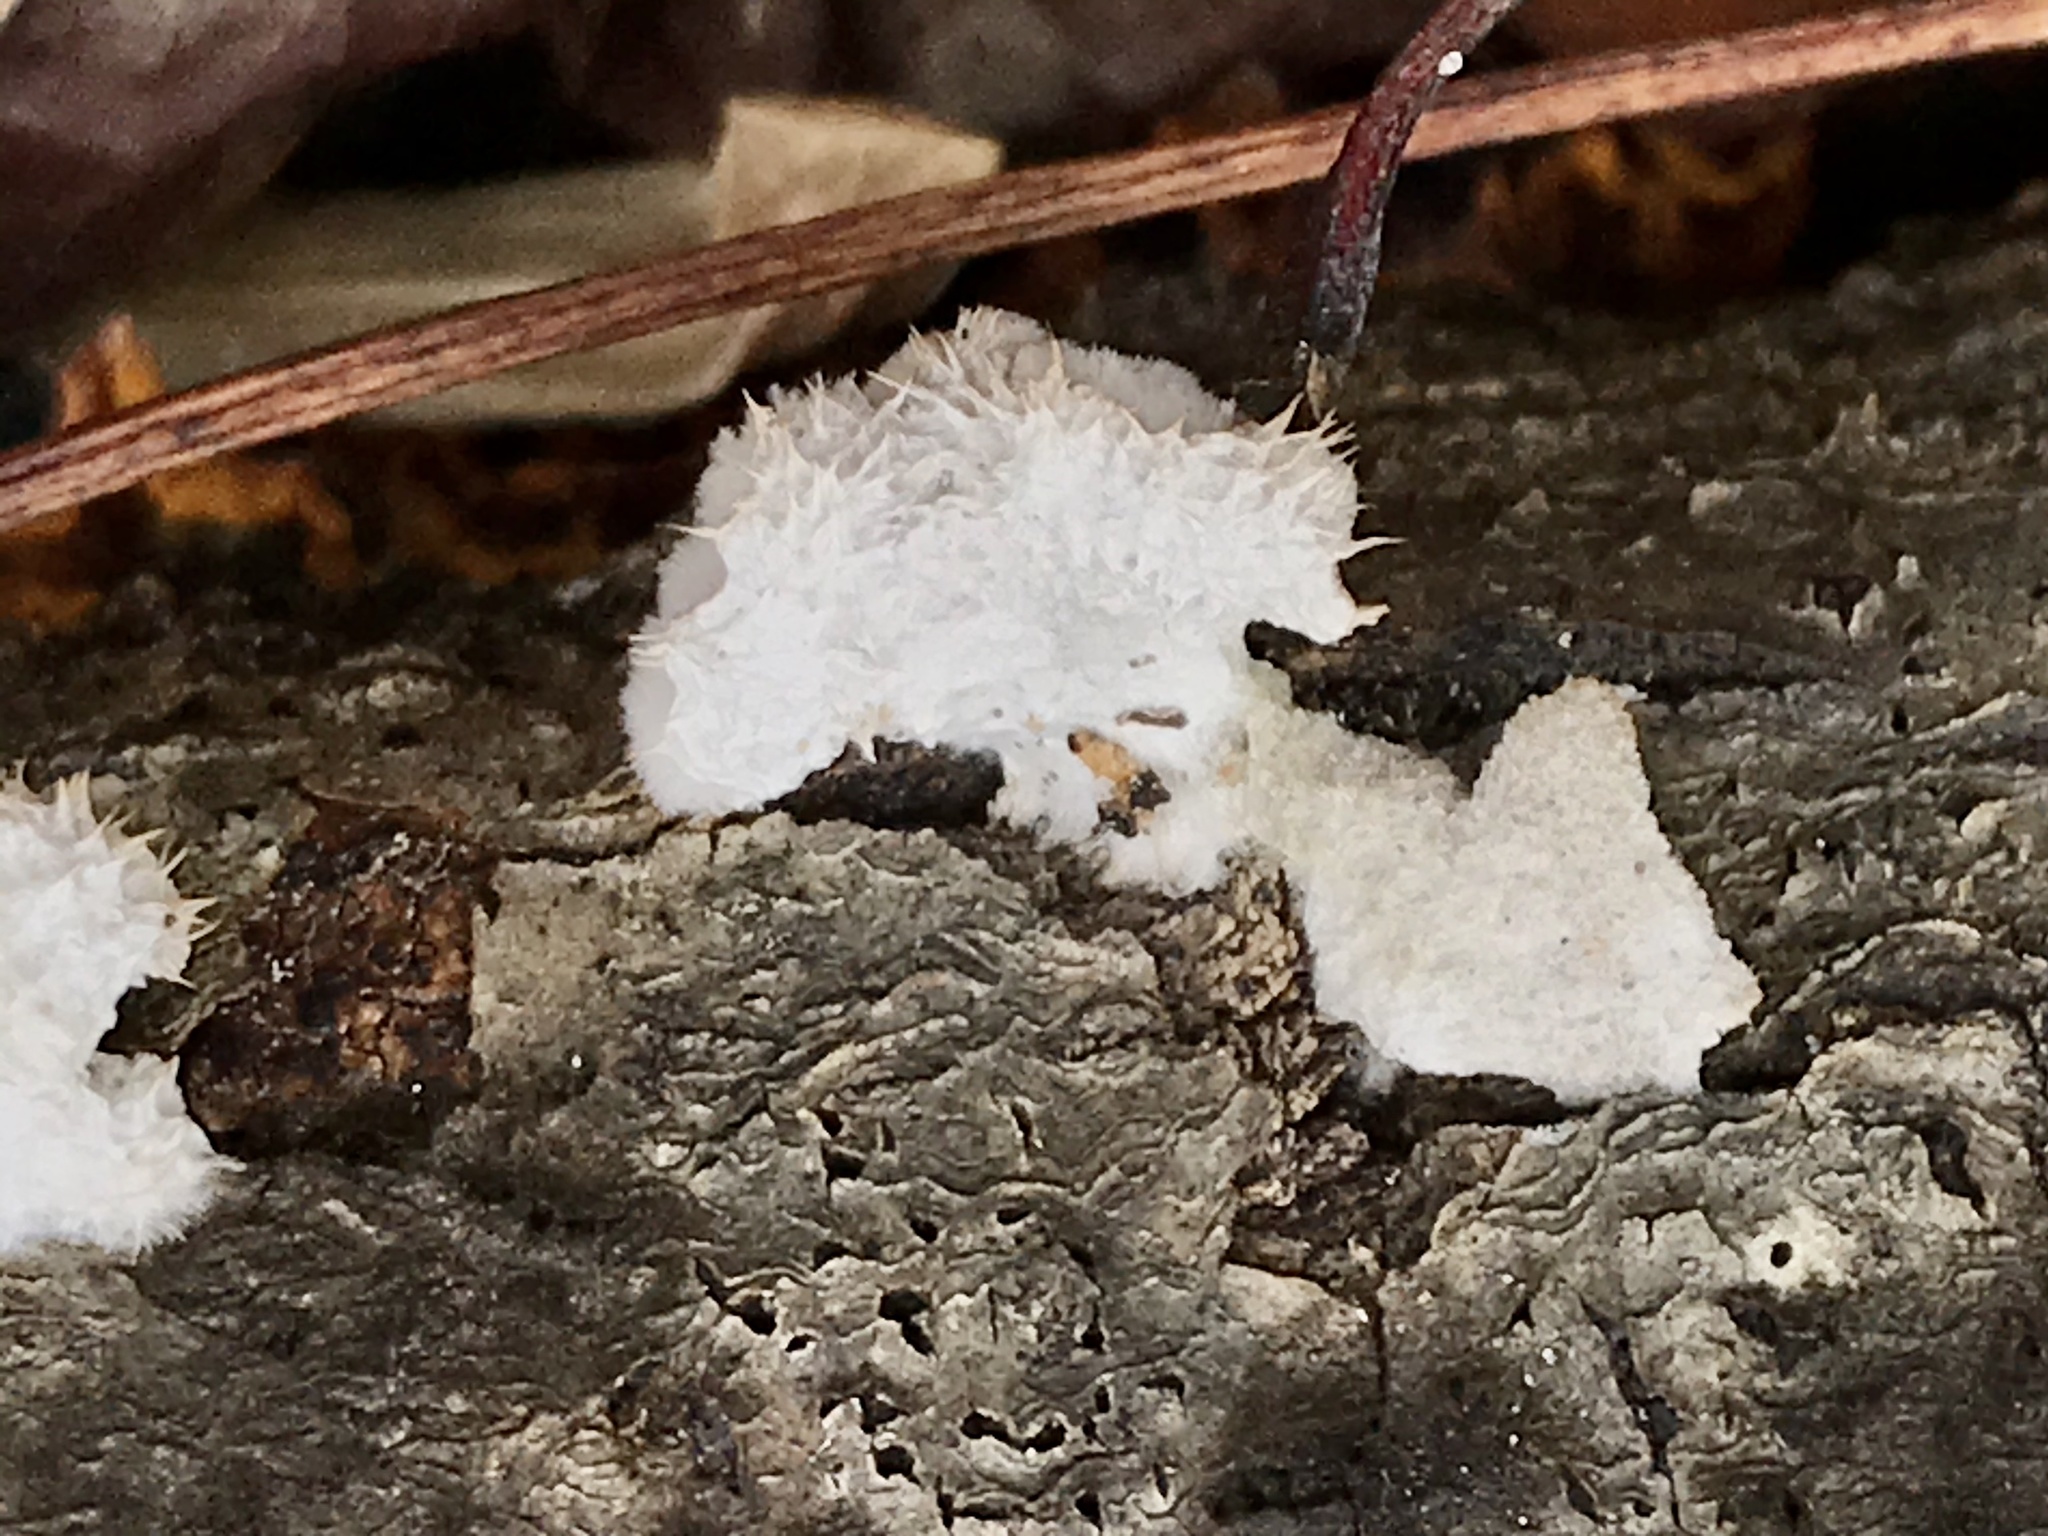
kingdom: Fungi
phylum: Basidiomycota
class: Agaricomycetes
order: Agaricales
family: Schizophyllaceae
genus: Schizophyllum
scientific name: Schizophyllum commune
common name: Common porecrust
